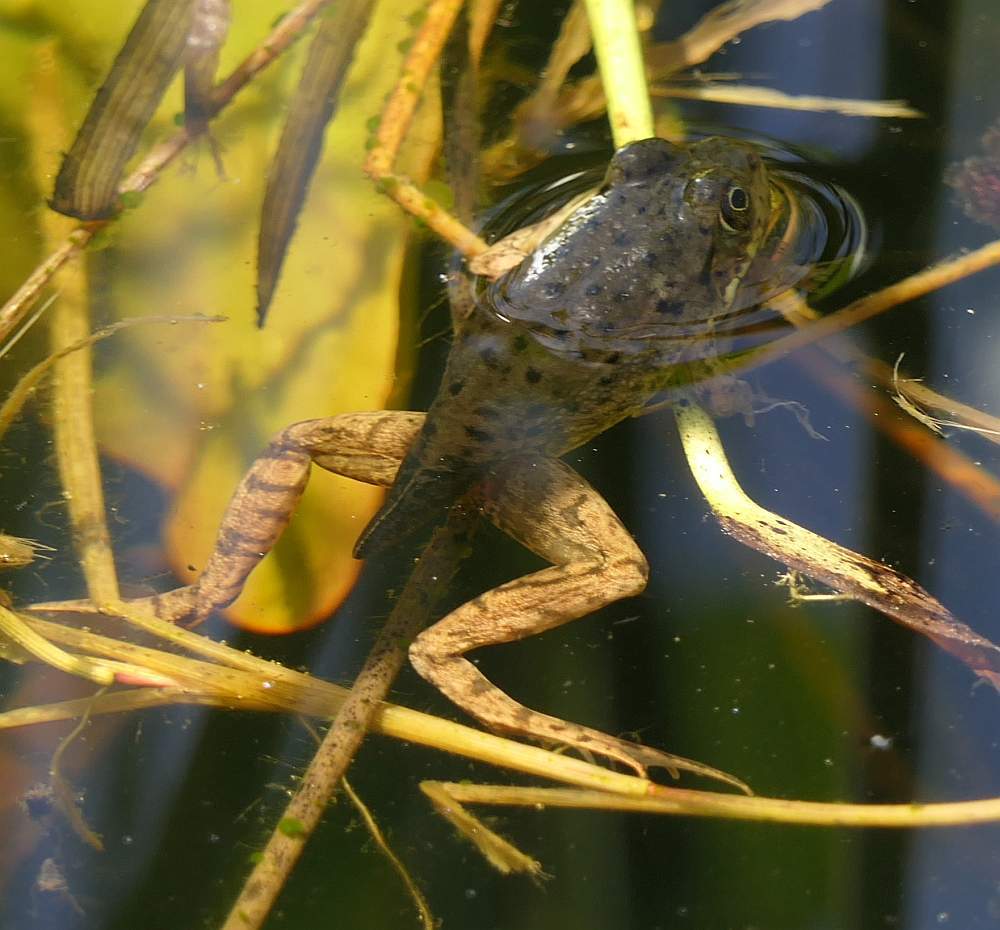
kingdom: Animalia
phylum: Chordata
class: Amphibia
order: Anura
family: Ranidae
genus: Lithobates
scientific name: Lithobates clamitans
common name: Green frog
